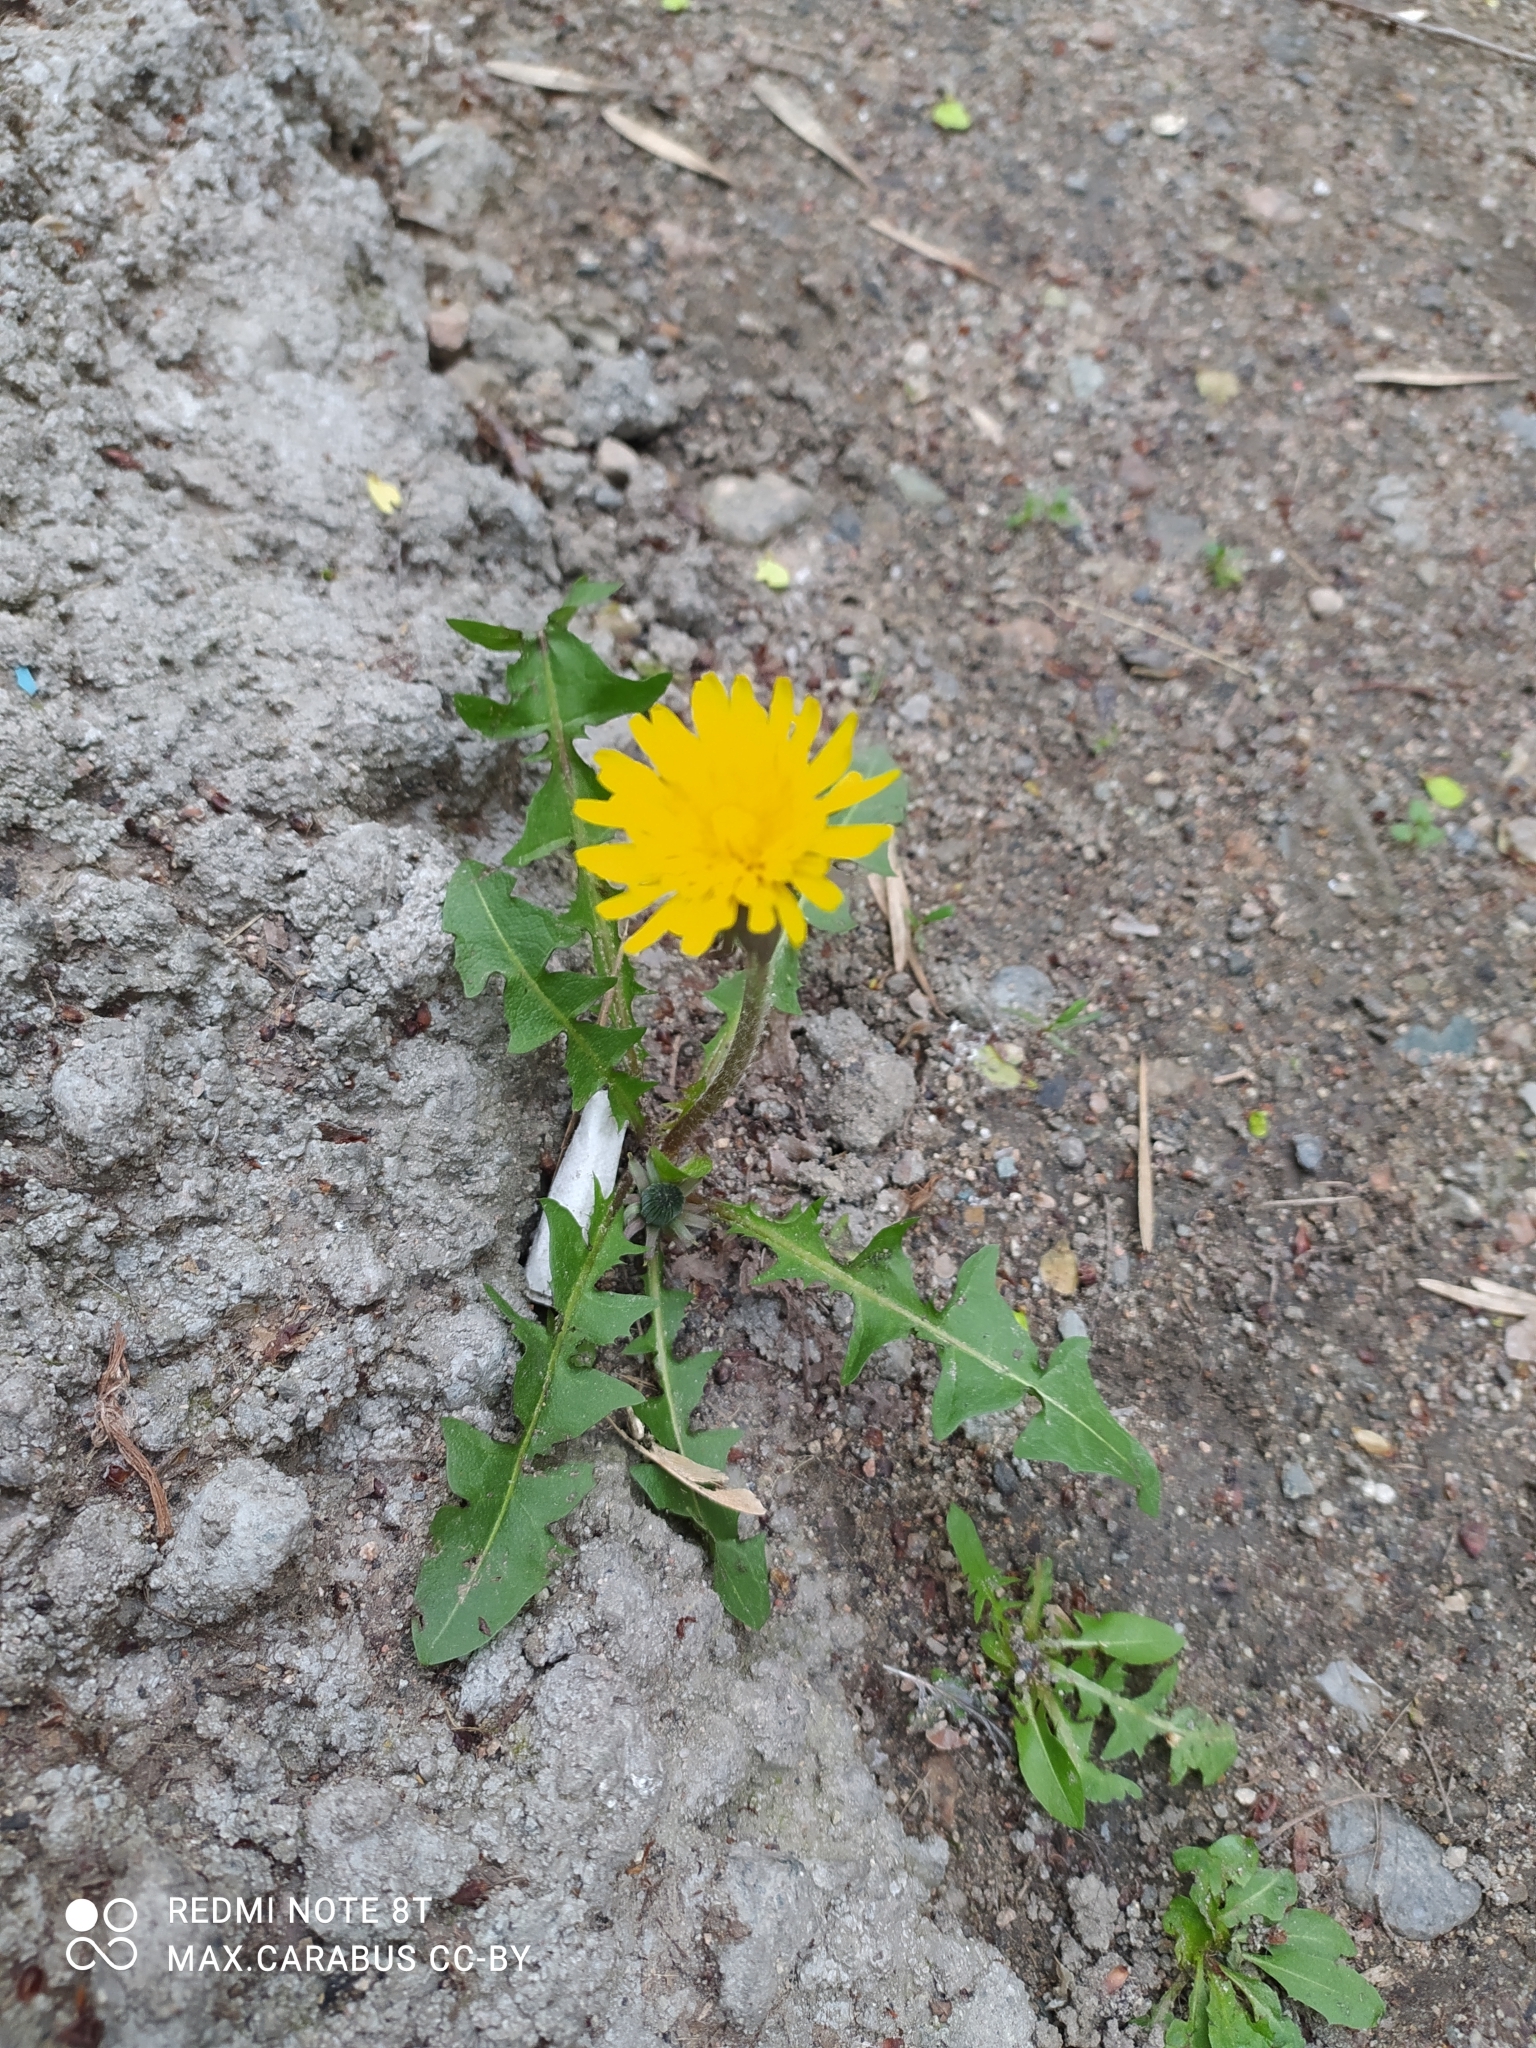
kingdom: Plantae
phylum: Tracheophyta
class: Magnoliopsida
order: Asterales
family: Asteraceae
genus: Taraxacum
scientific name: Taraxacum officinale
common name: Common dandelion
